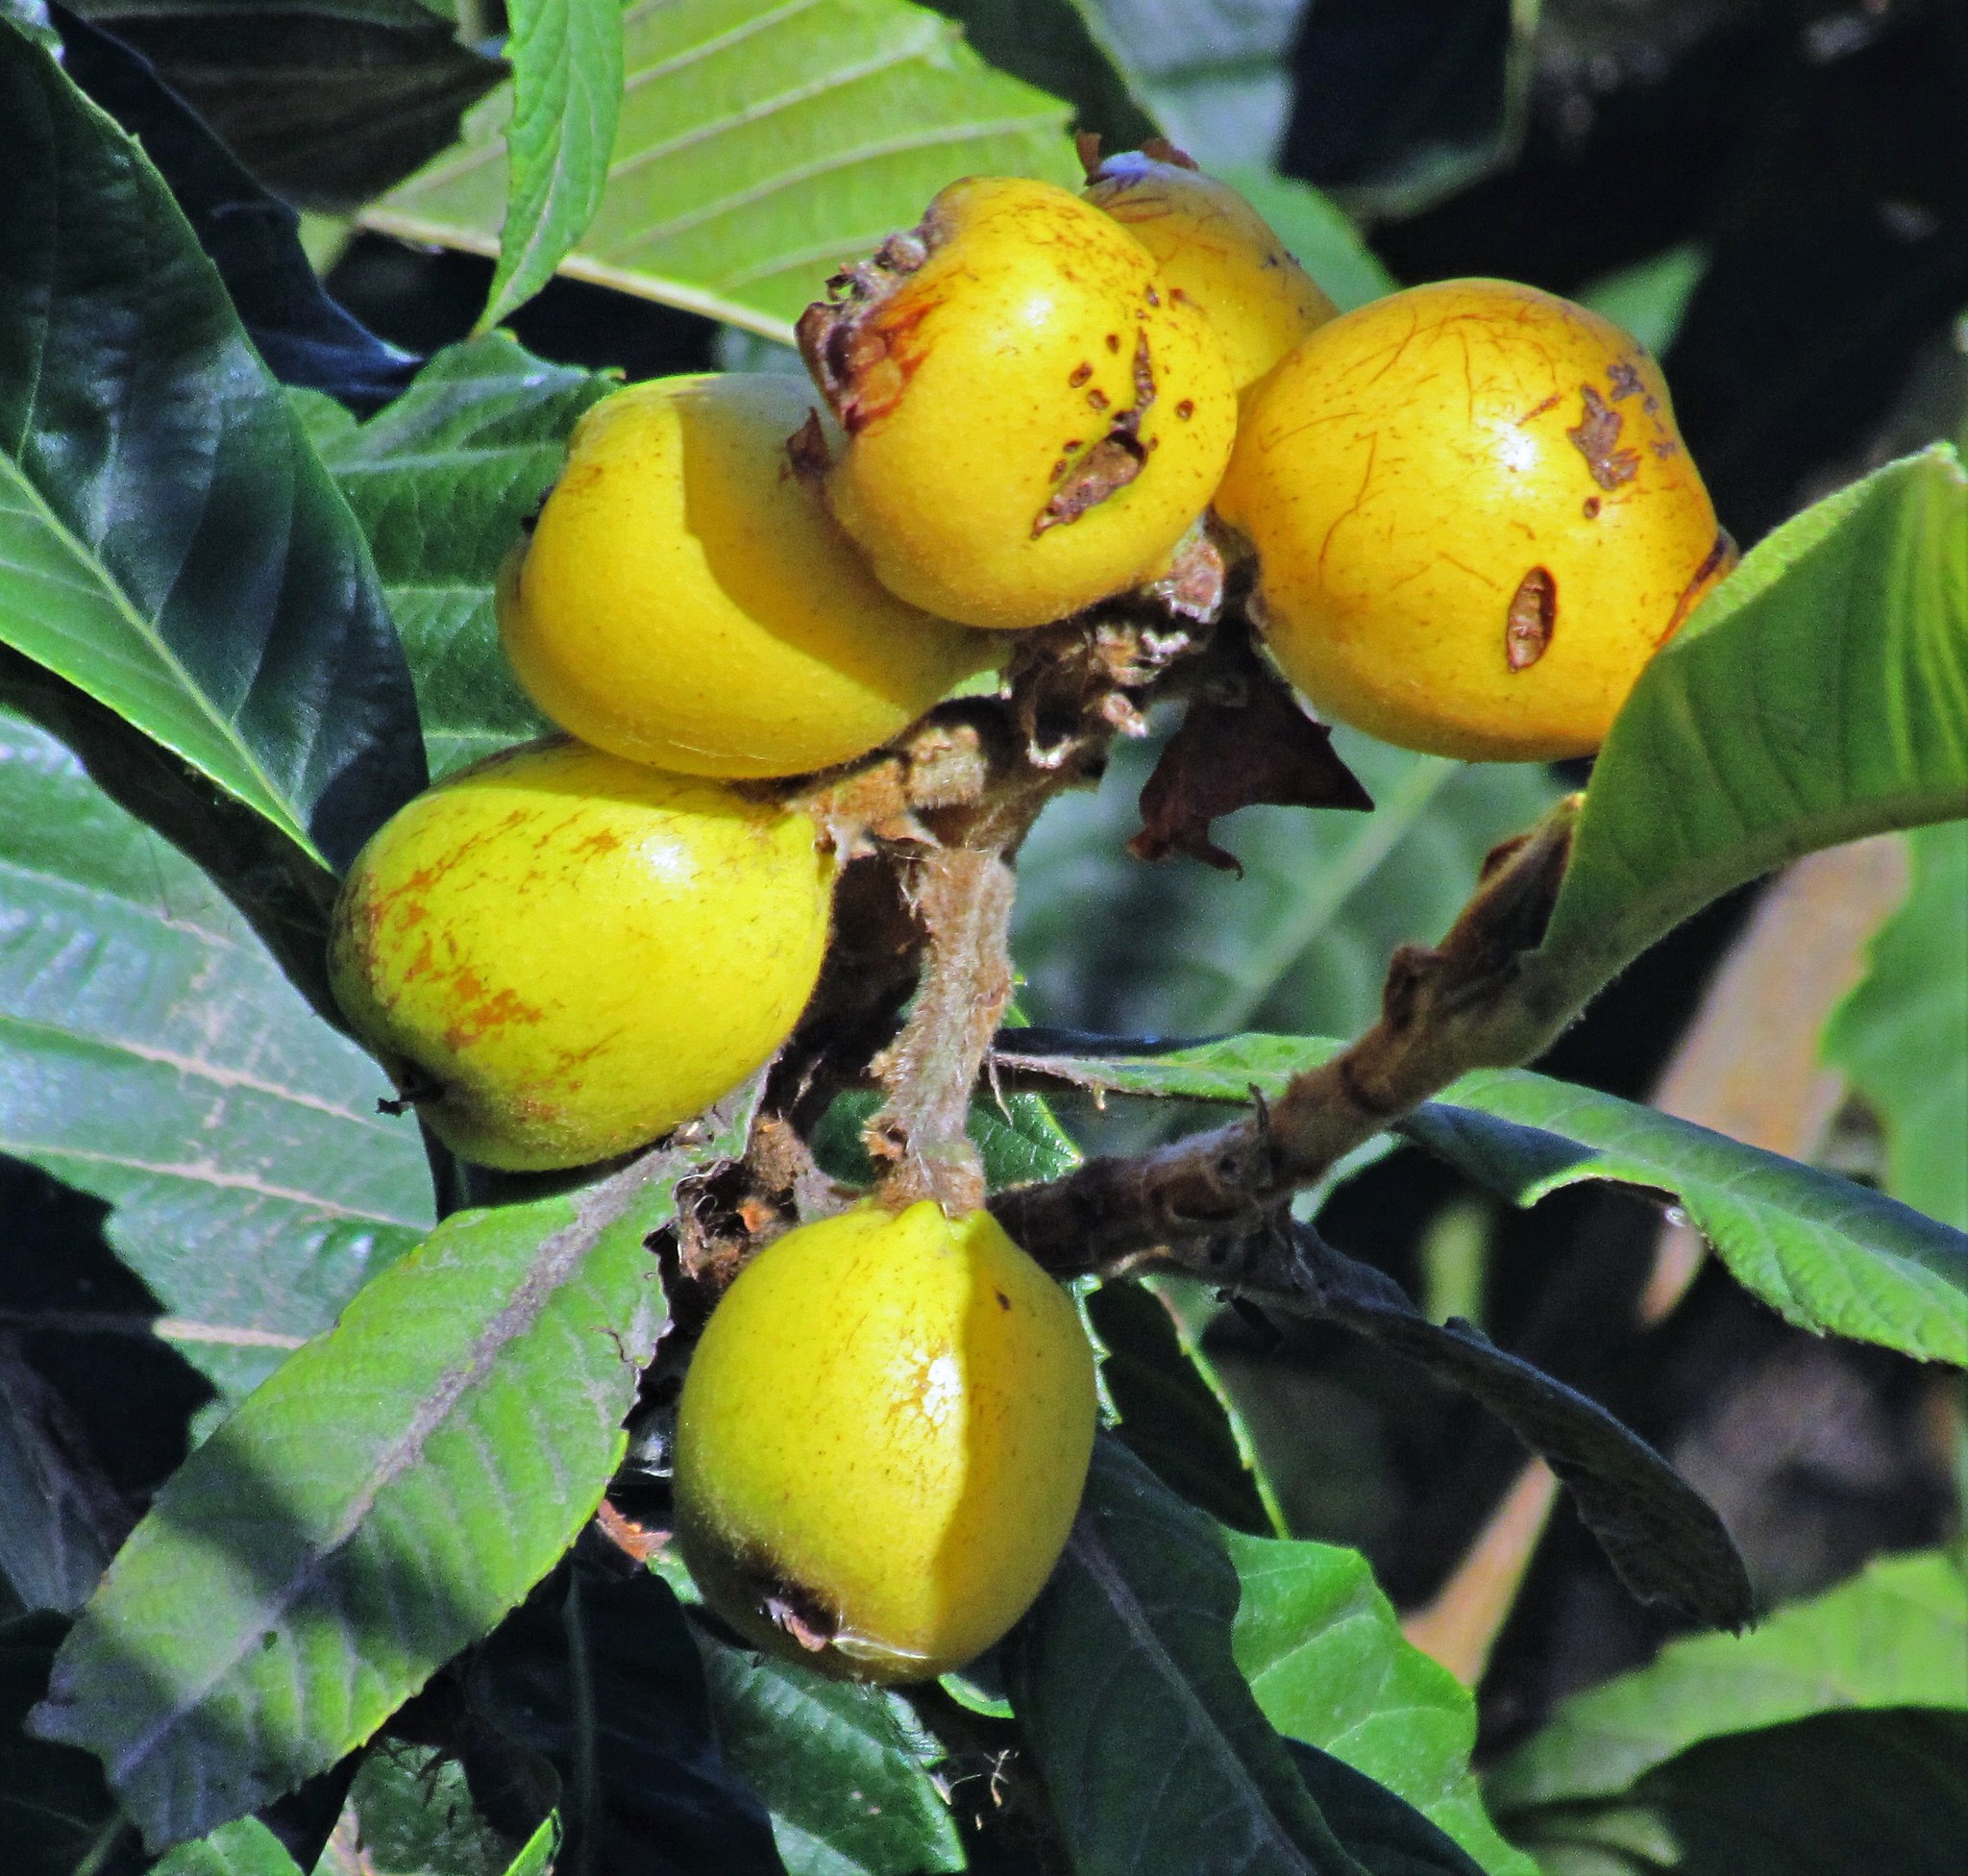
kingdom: Plantae
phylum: Tracheophyta
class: Magnoliopsida
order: Rosales
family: Rosaceae
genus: Rhaphiolepis
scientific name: Rhaphiolepis bibas
